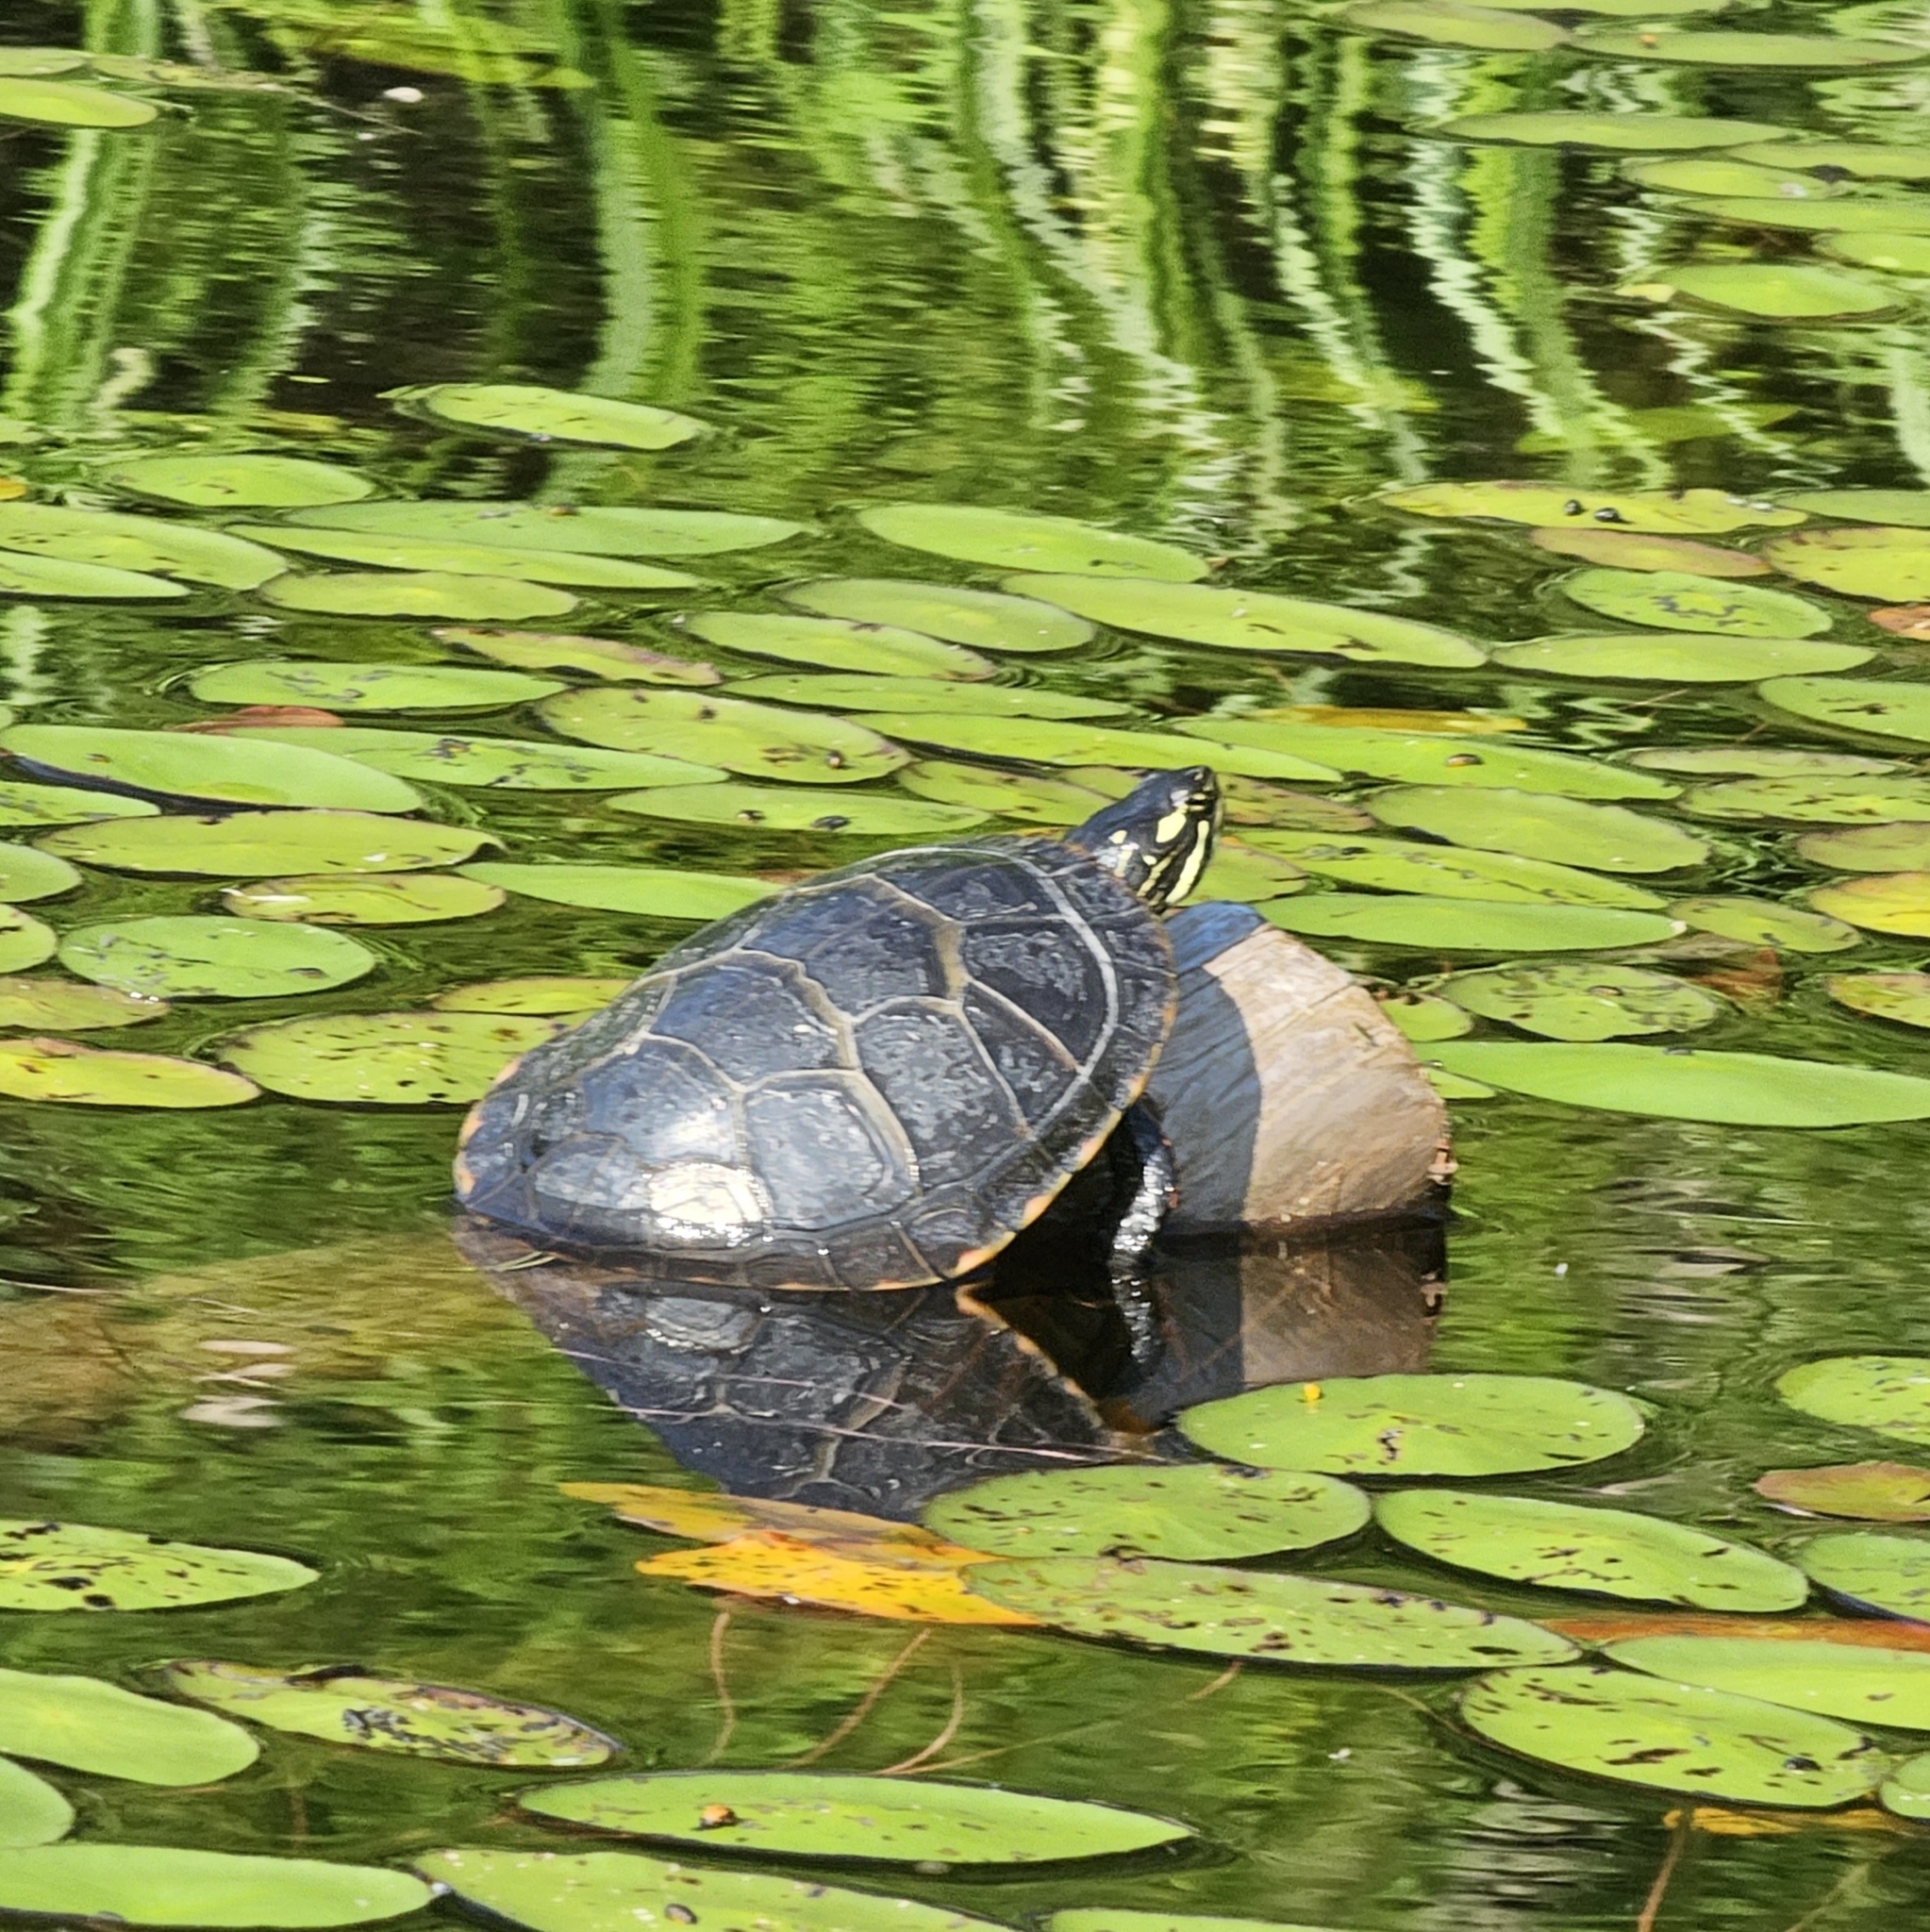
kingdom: Animalia
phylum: Chordata
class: Testudines
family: Emydidae
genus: Chrysemys
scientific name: Chrysemys picta
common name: Painted turtle
